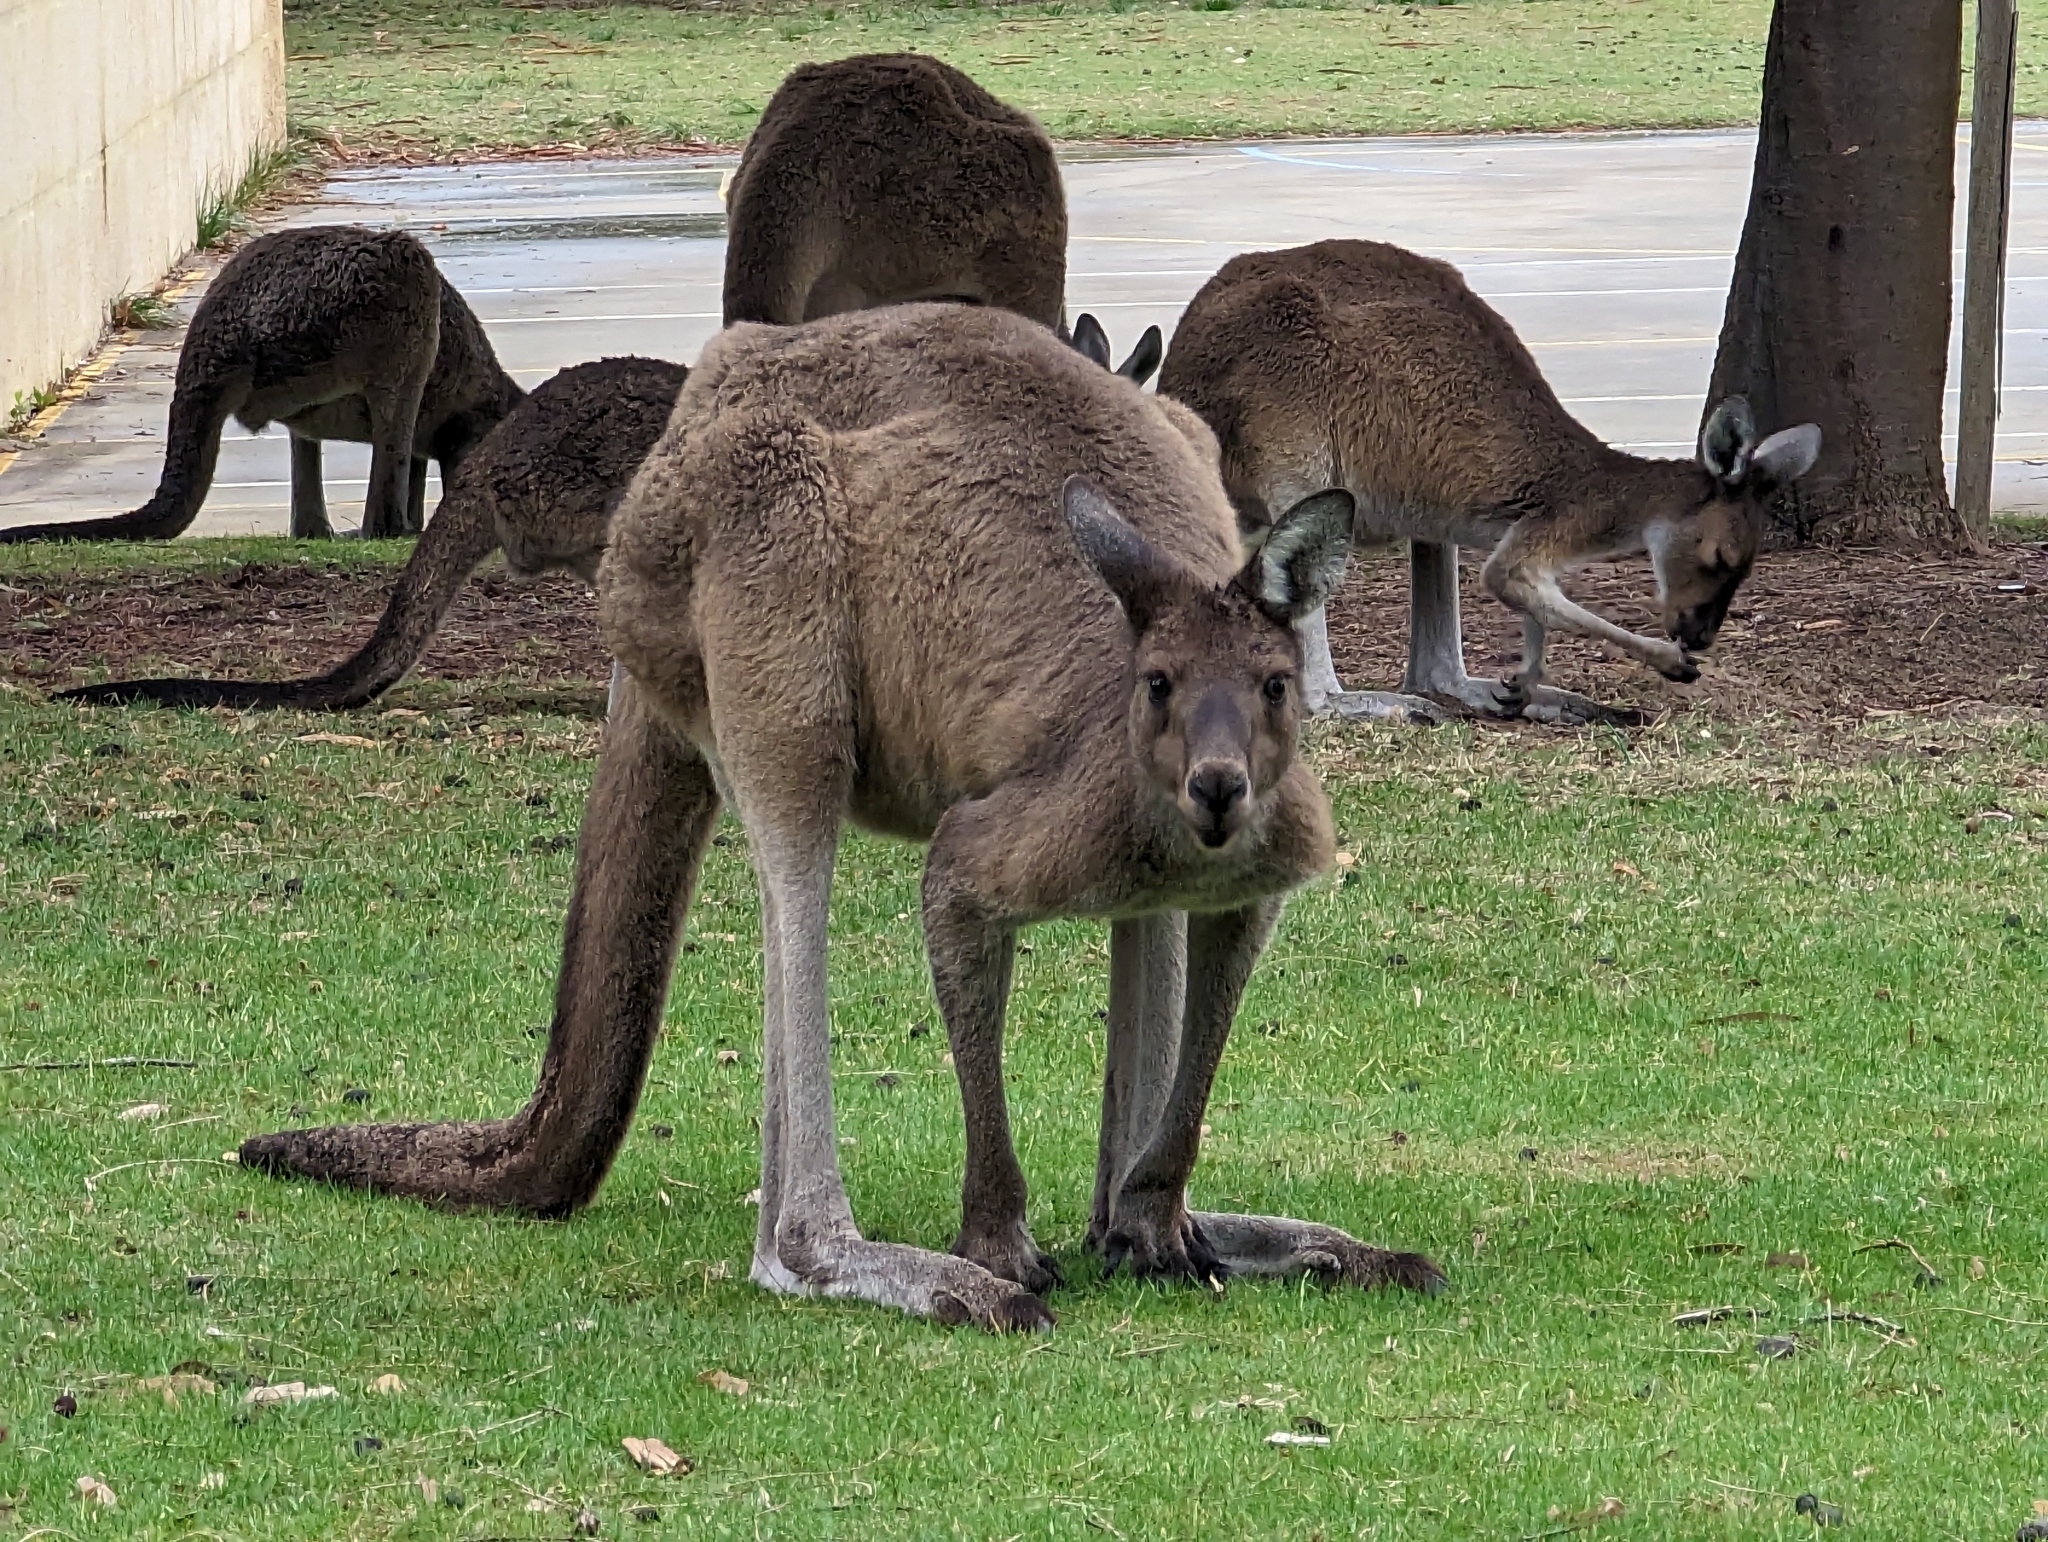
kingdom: Animalia
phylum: Chordata
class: Mammalia
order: Diprotodontia
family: Macropodidae
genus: Macropus
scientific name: Macropus fuliginosus
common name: Western grey kangaroo
